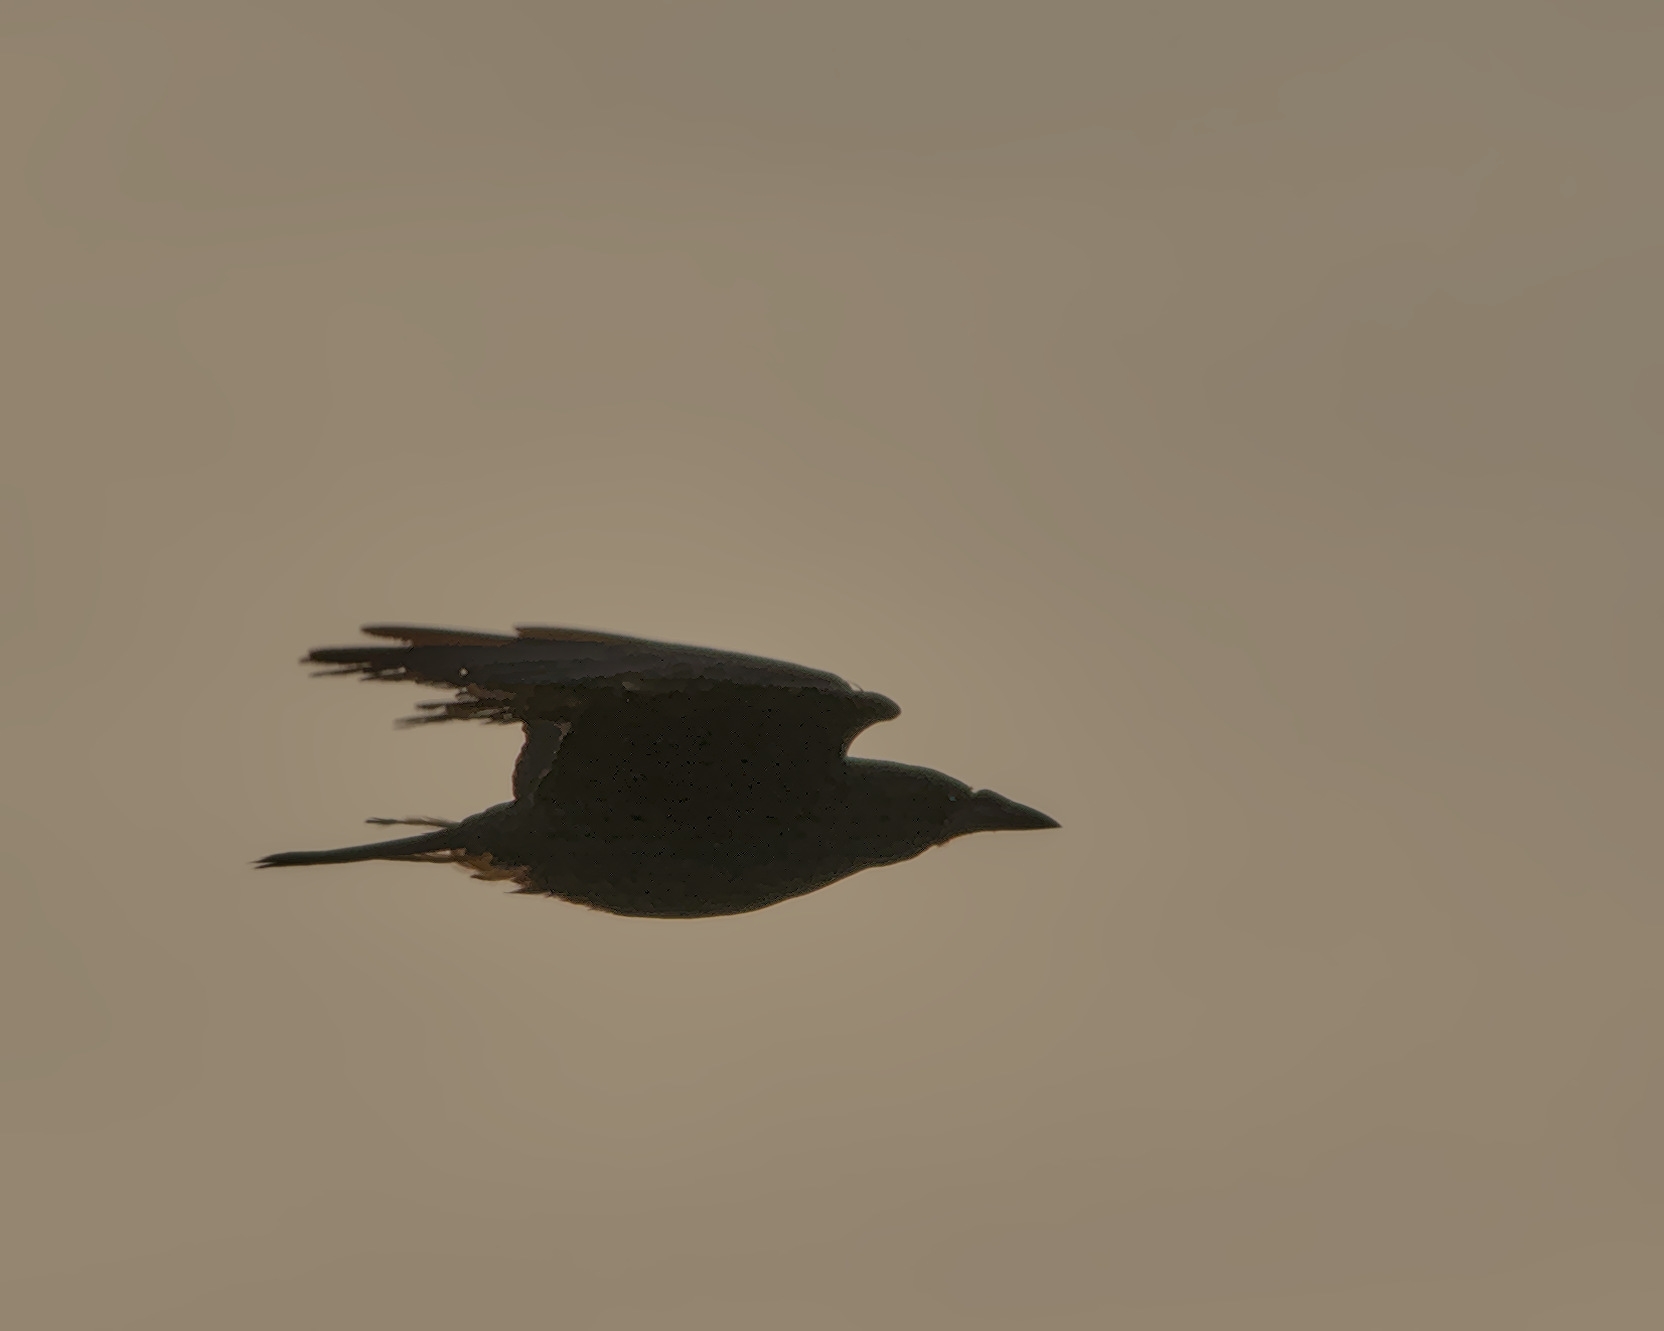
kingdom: Animalia
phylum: Chordata
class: Aves
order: Passeriformes
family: Corvidae
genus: Corvus
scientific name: Corvus corone
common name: Carrion crow
